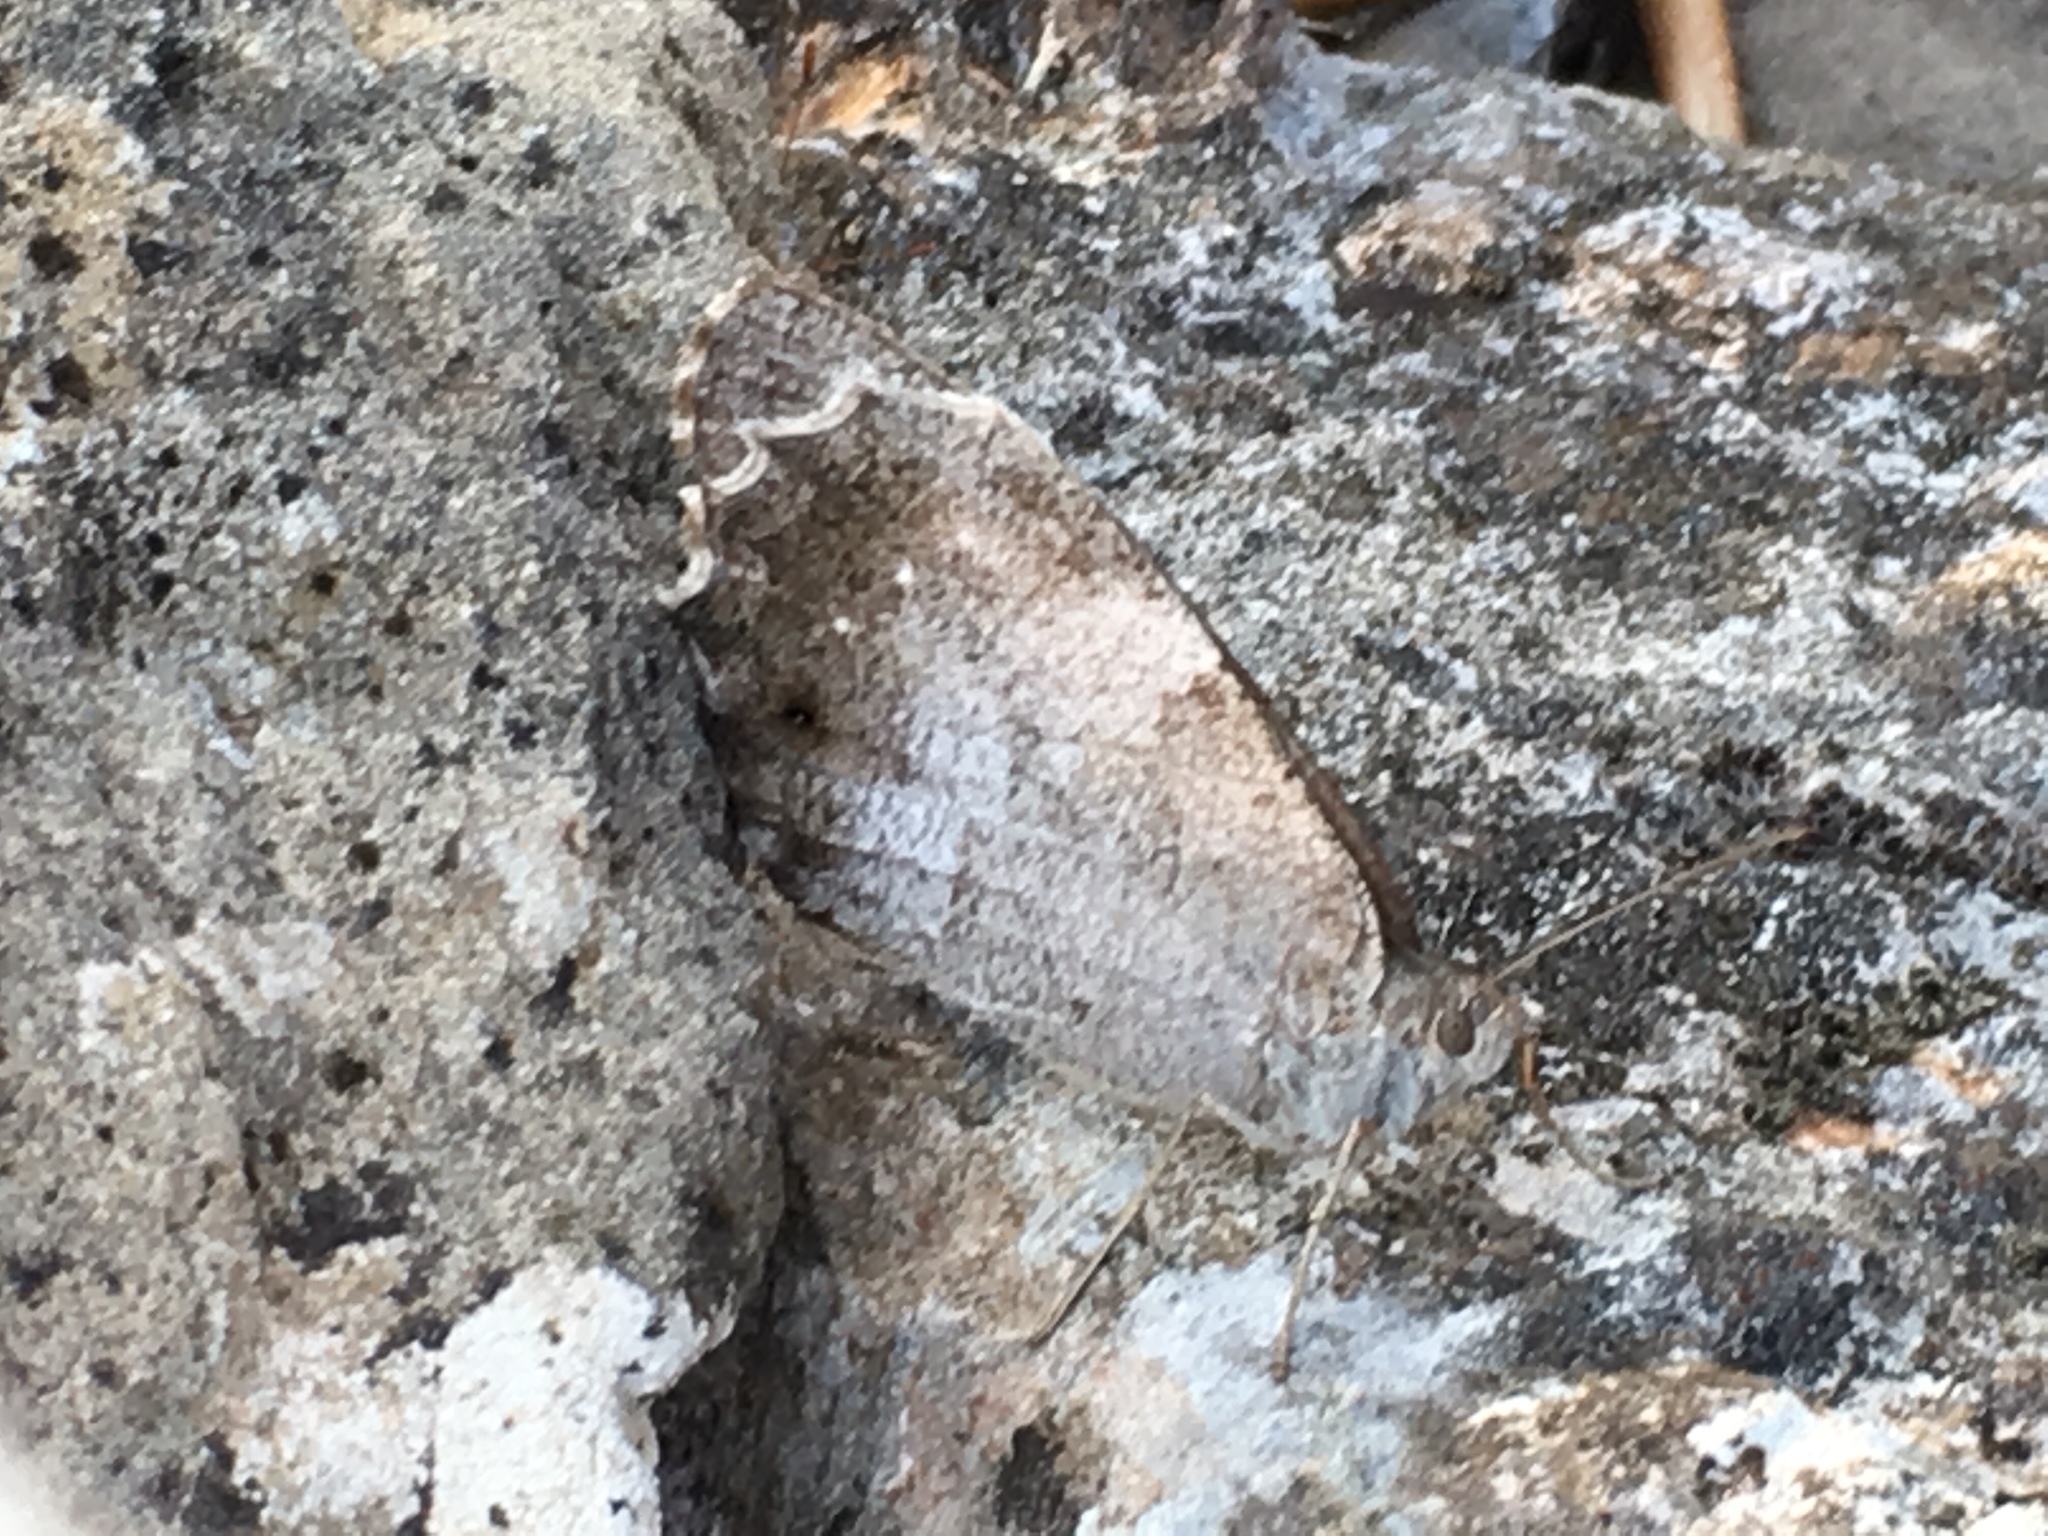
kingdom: Animalia
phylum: Arthropoda
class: Insecta
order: Lepidoptera
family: Nymphalidae
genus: Hipparchia
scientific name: Hipparchia statilinus
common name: Tree grayling
